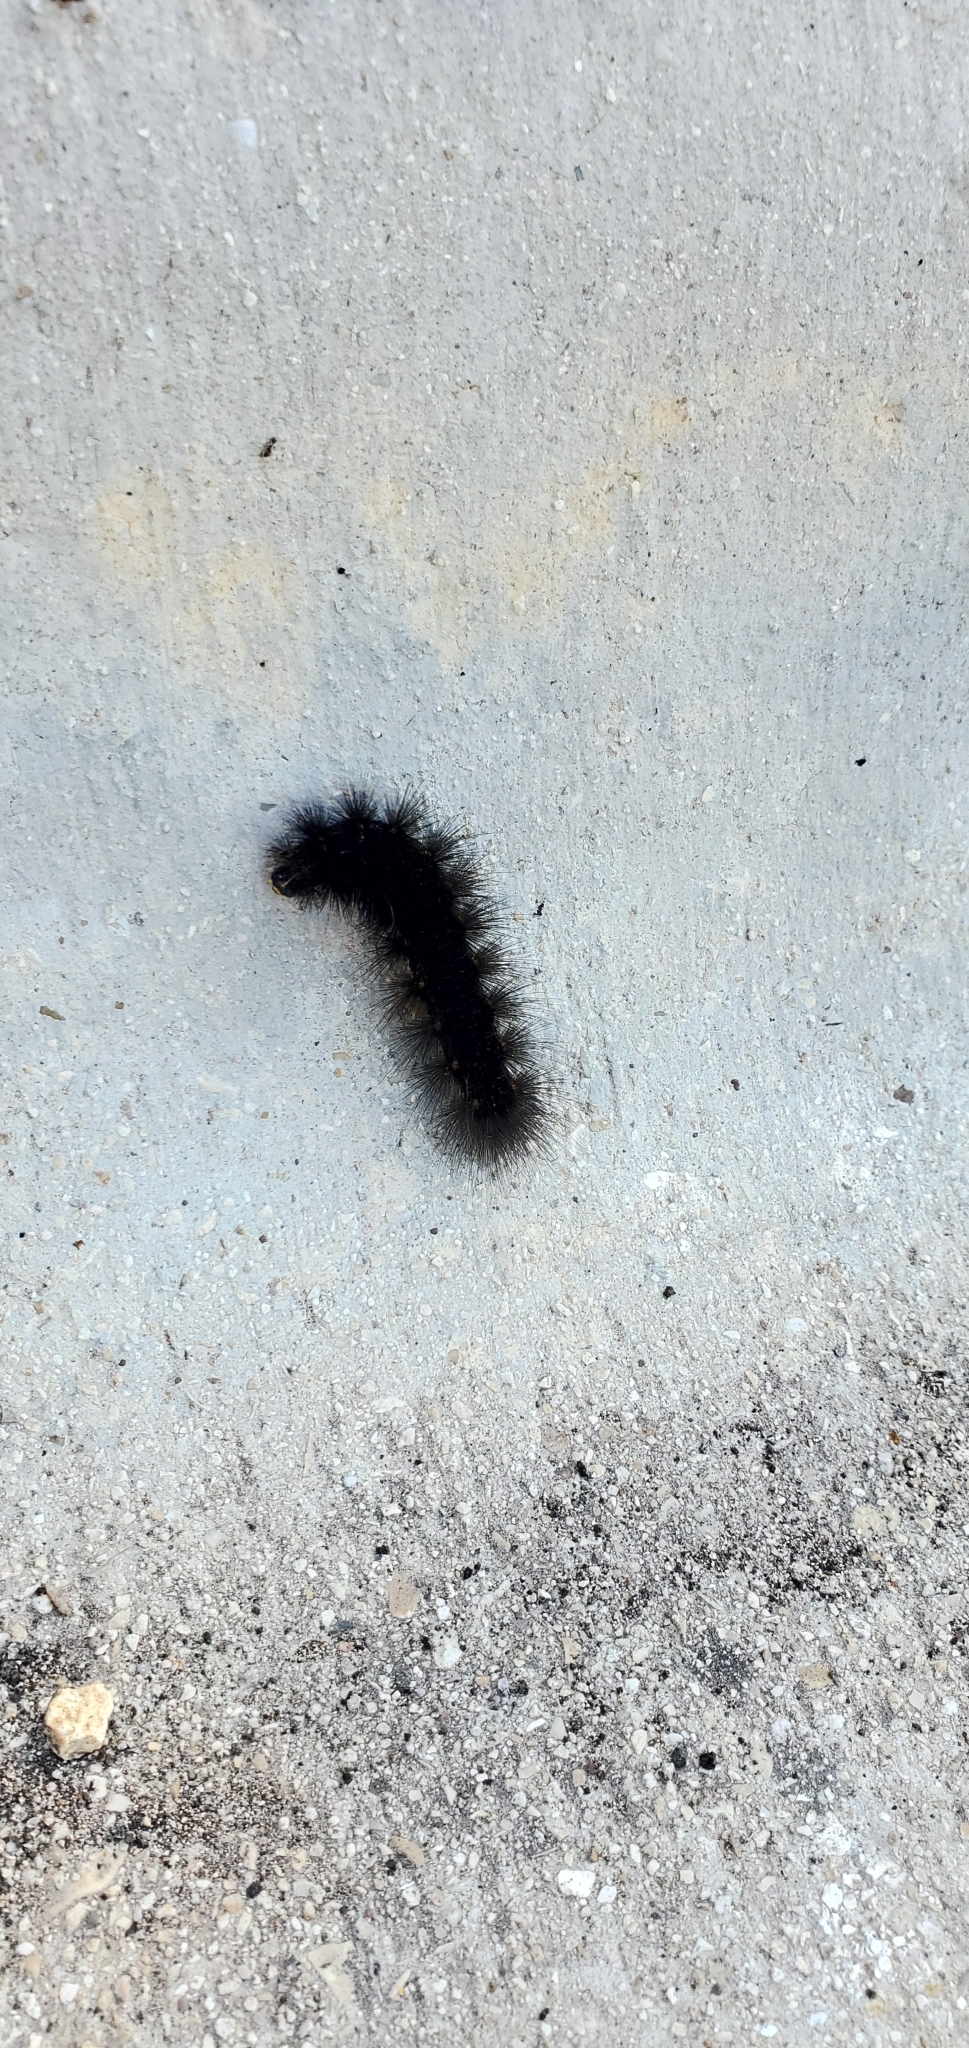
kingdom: Animalia
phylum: Arthropoda
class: Insecta
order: Lepidoptera
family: Erebidae
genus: Estigmene
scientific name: Estigmene acrea
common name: Salt marsh moth
